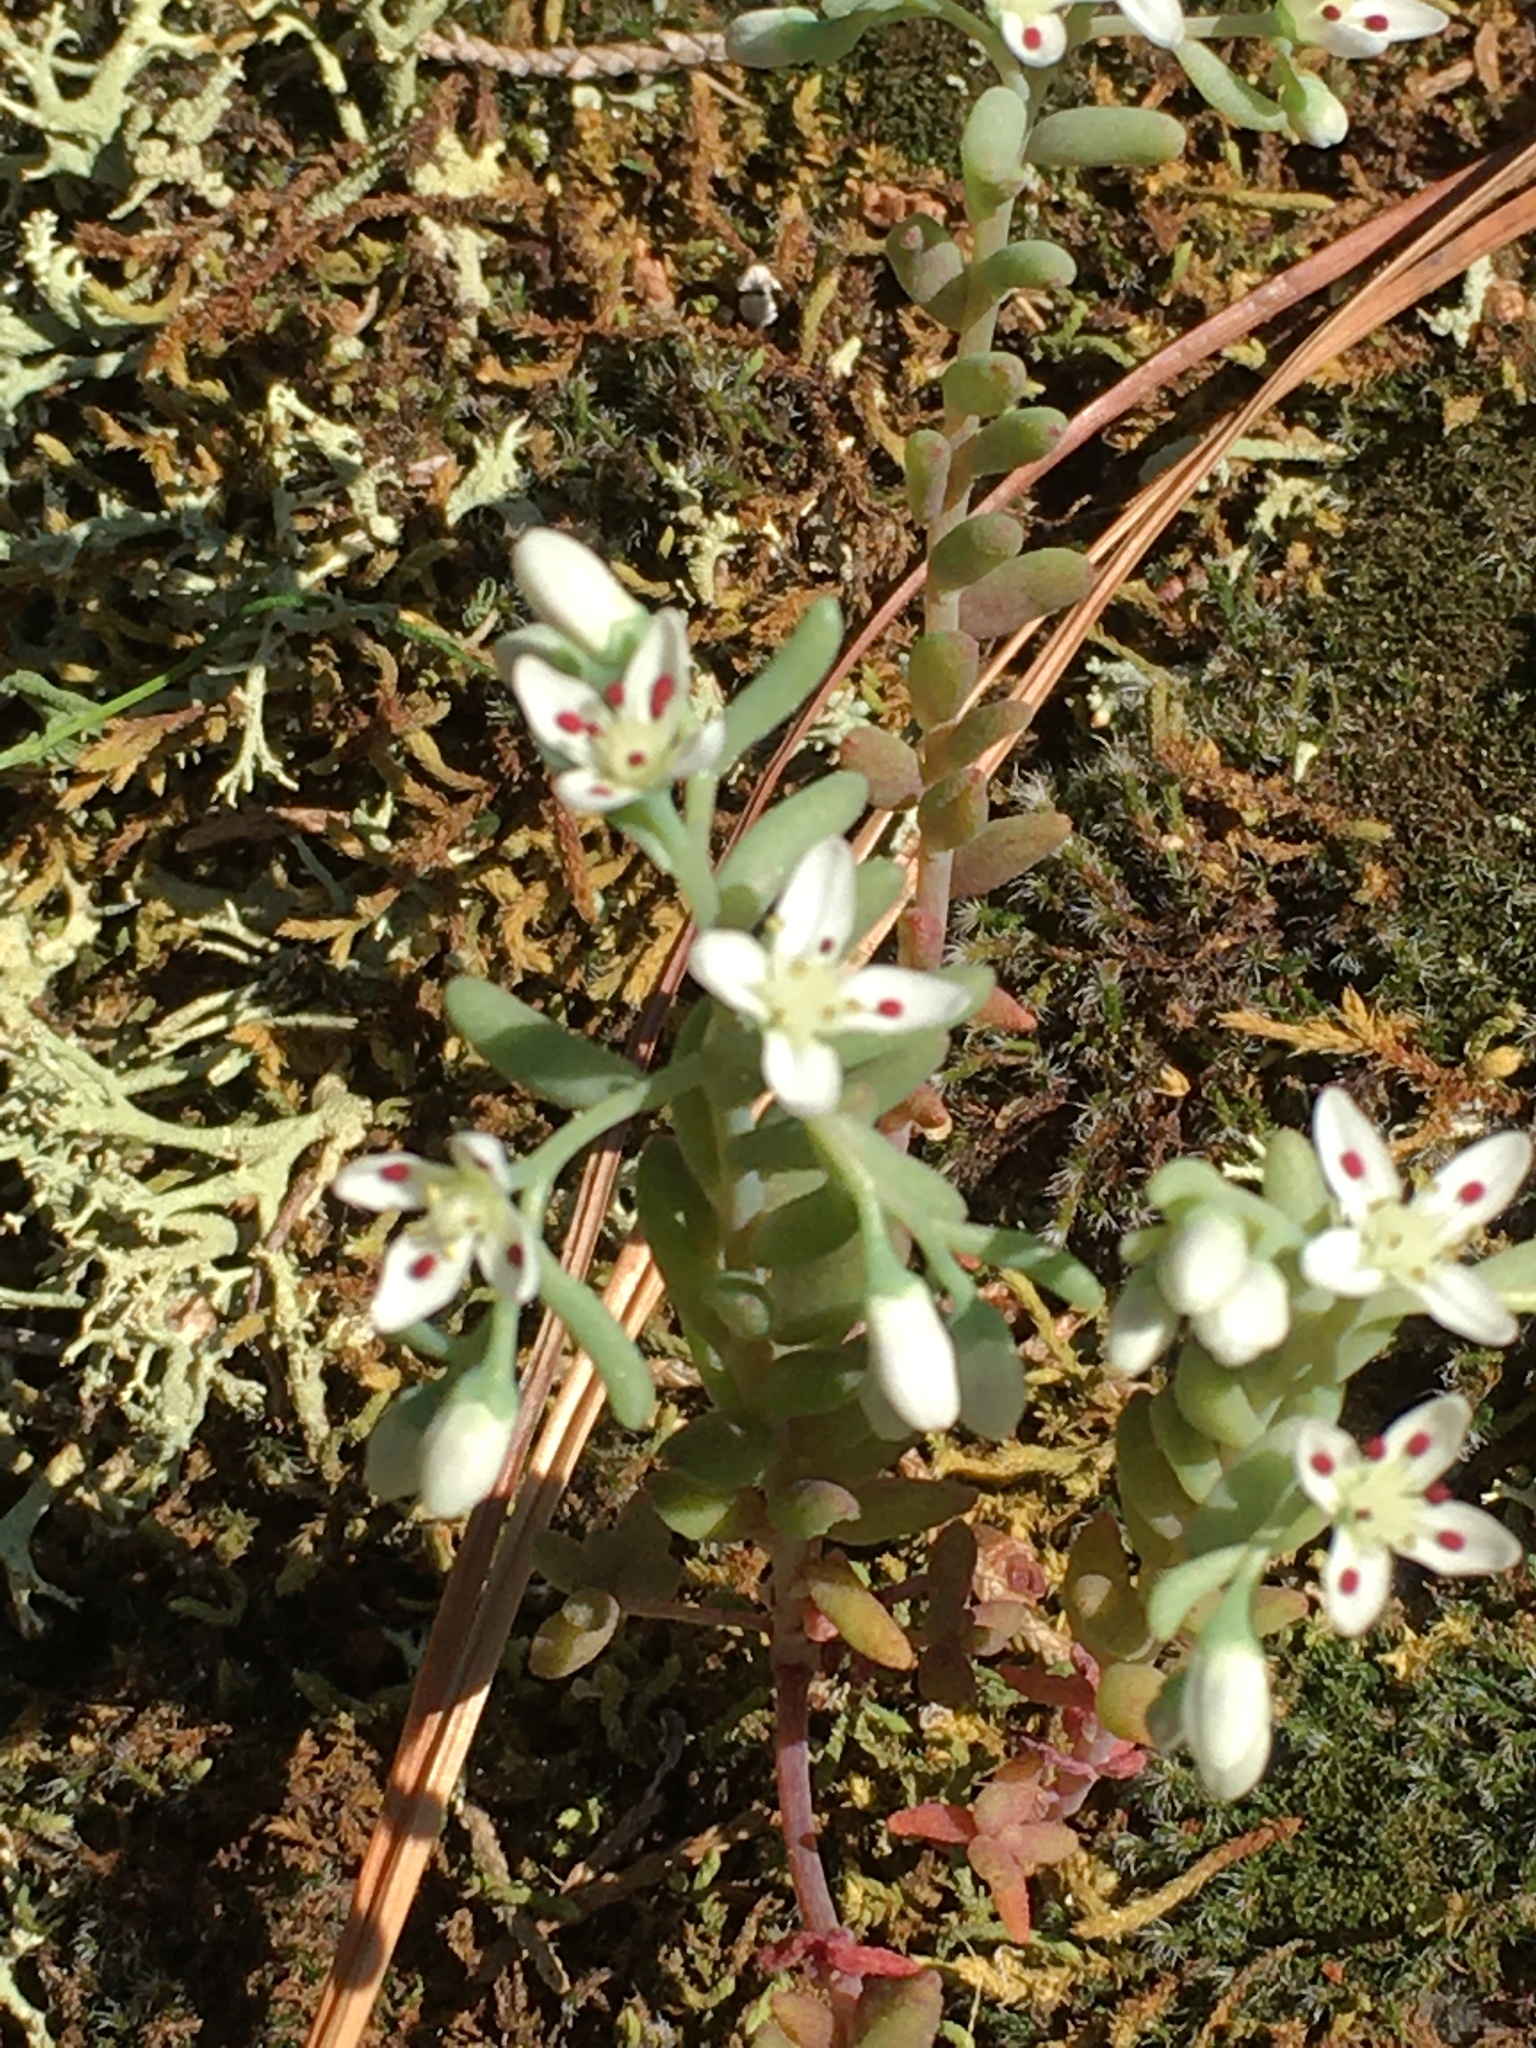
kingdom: Plantae
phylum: Tracheophyta
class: Magnoliopsida
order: Saxifragales
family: Crassulaceae
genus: Sedum
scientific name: Sedum pusillum
